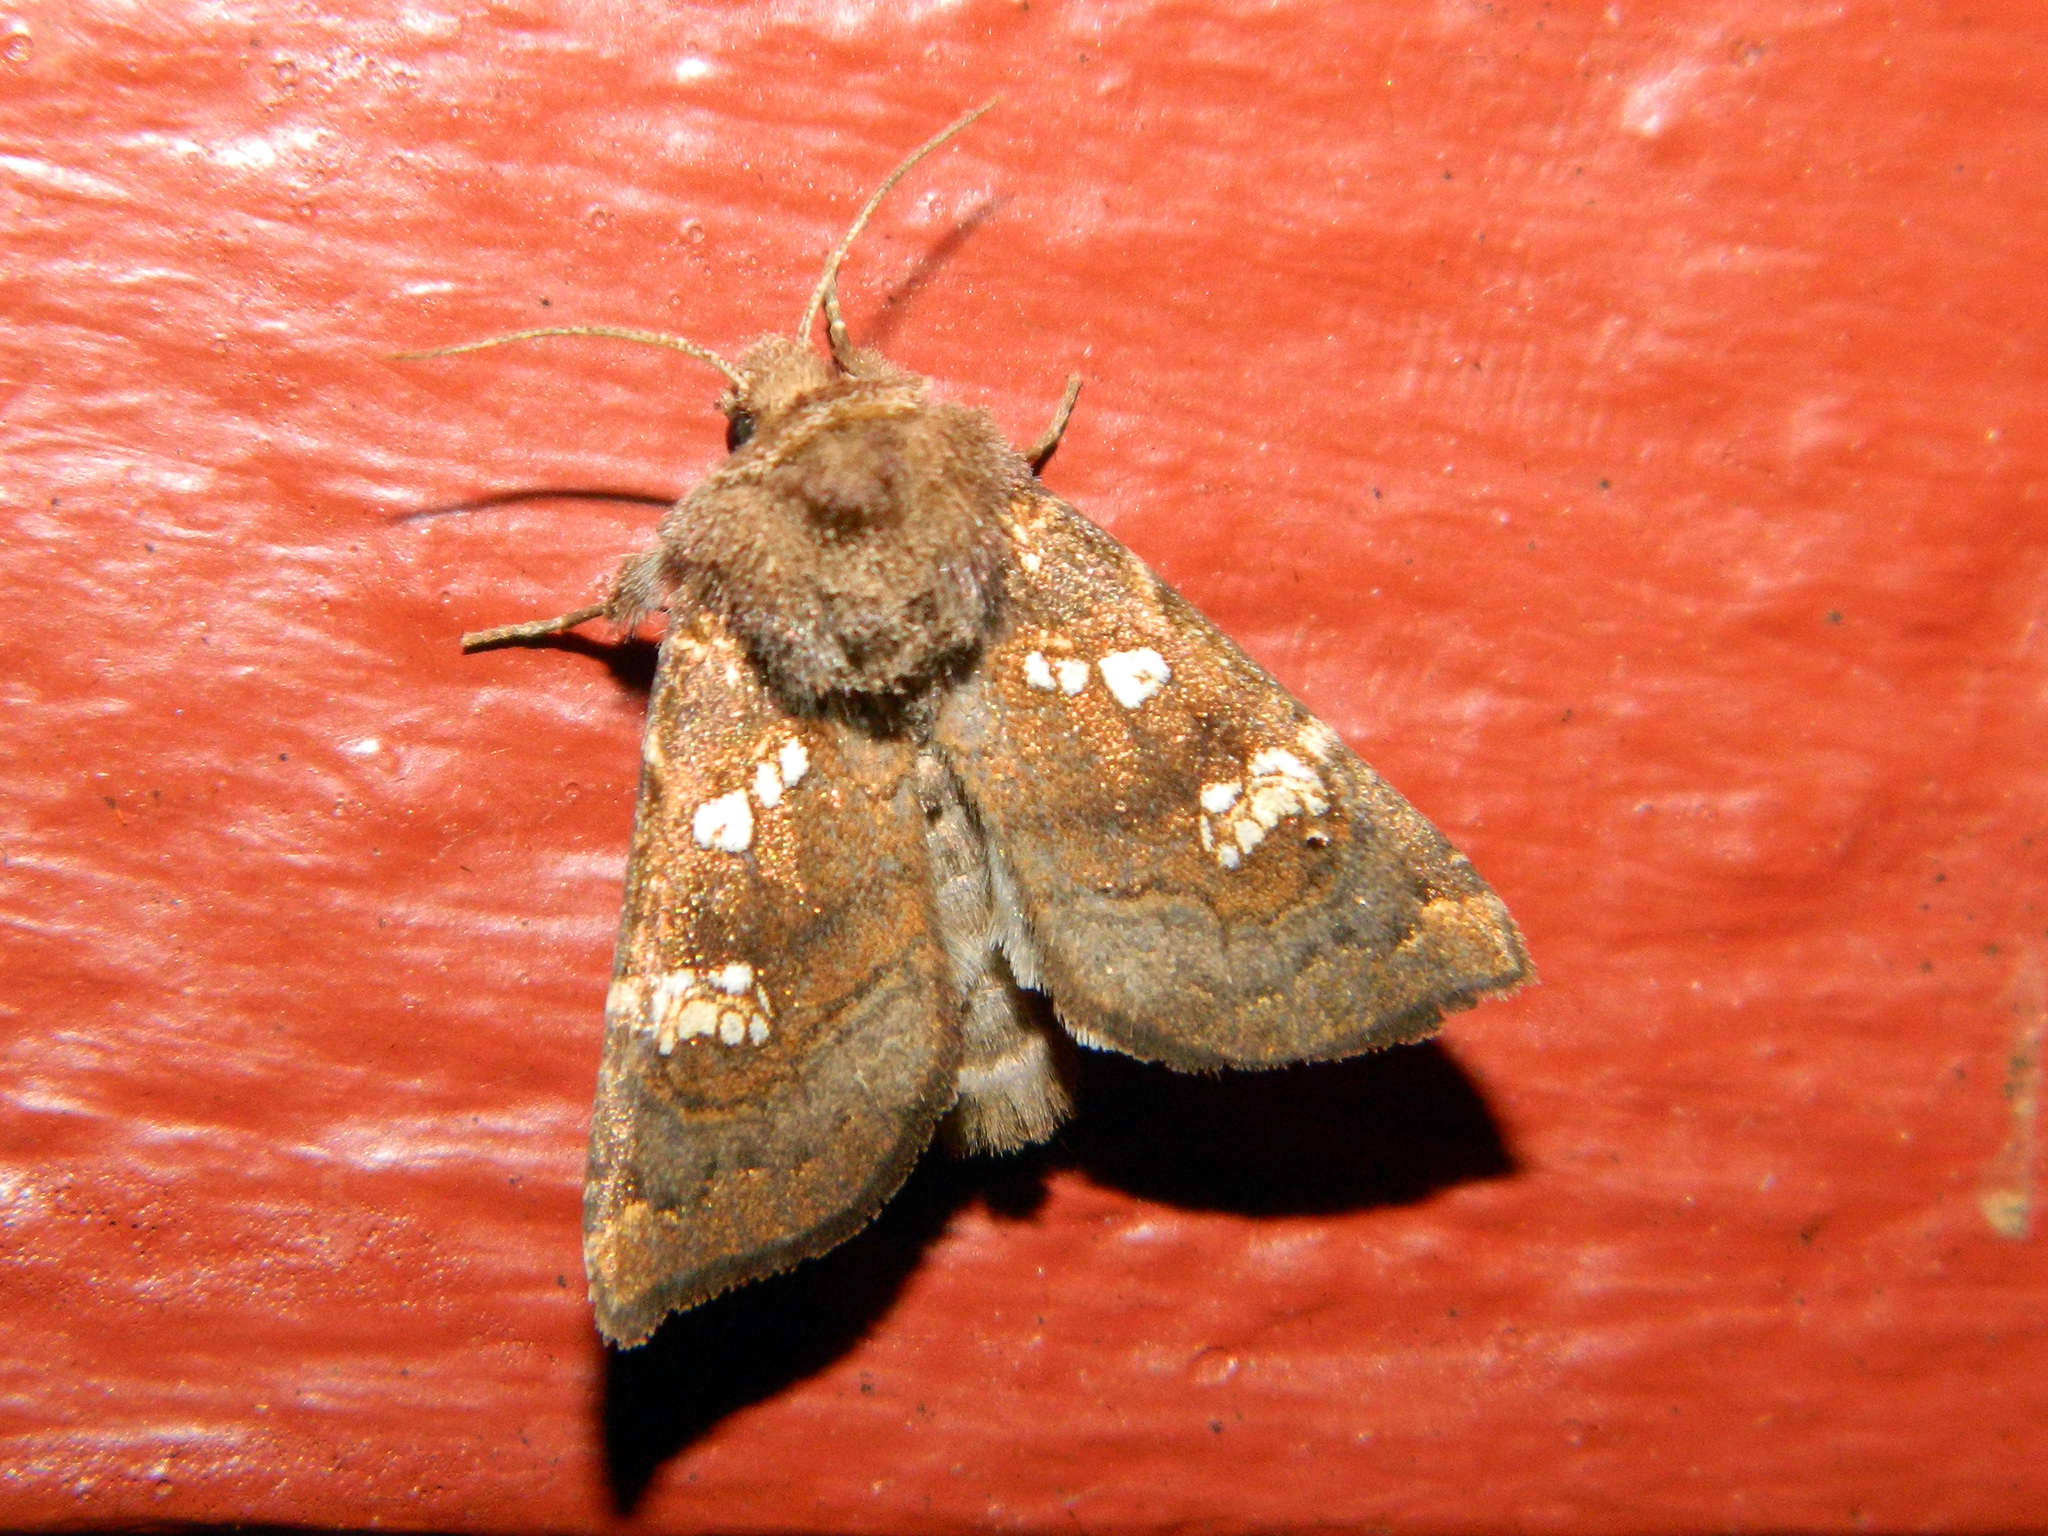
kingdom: Animalia
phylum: Arthropoda
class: Insecta
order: Lepidoptera
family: Noctuidae
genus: Papaipema
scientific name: Papaipema unimoda
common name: Meadow rue borer moth
